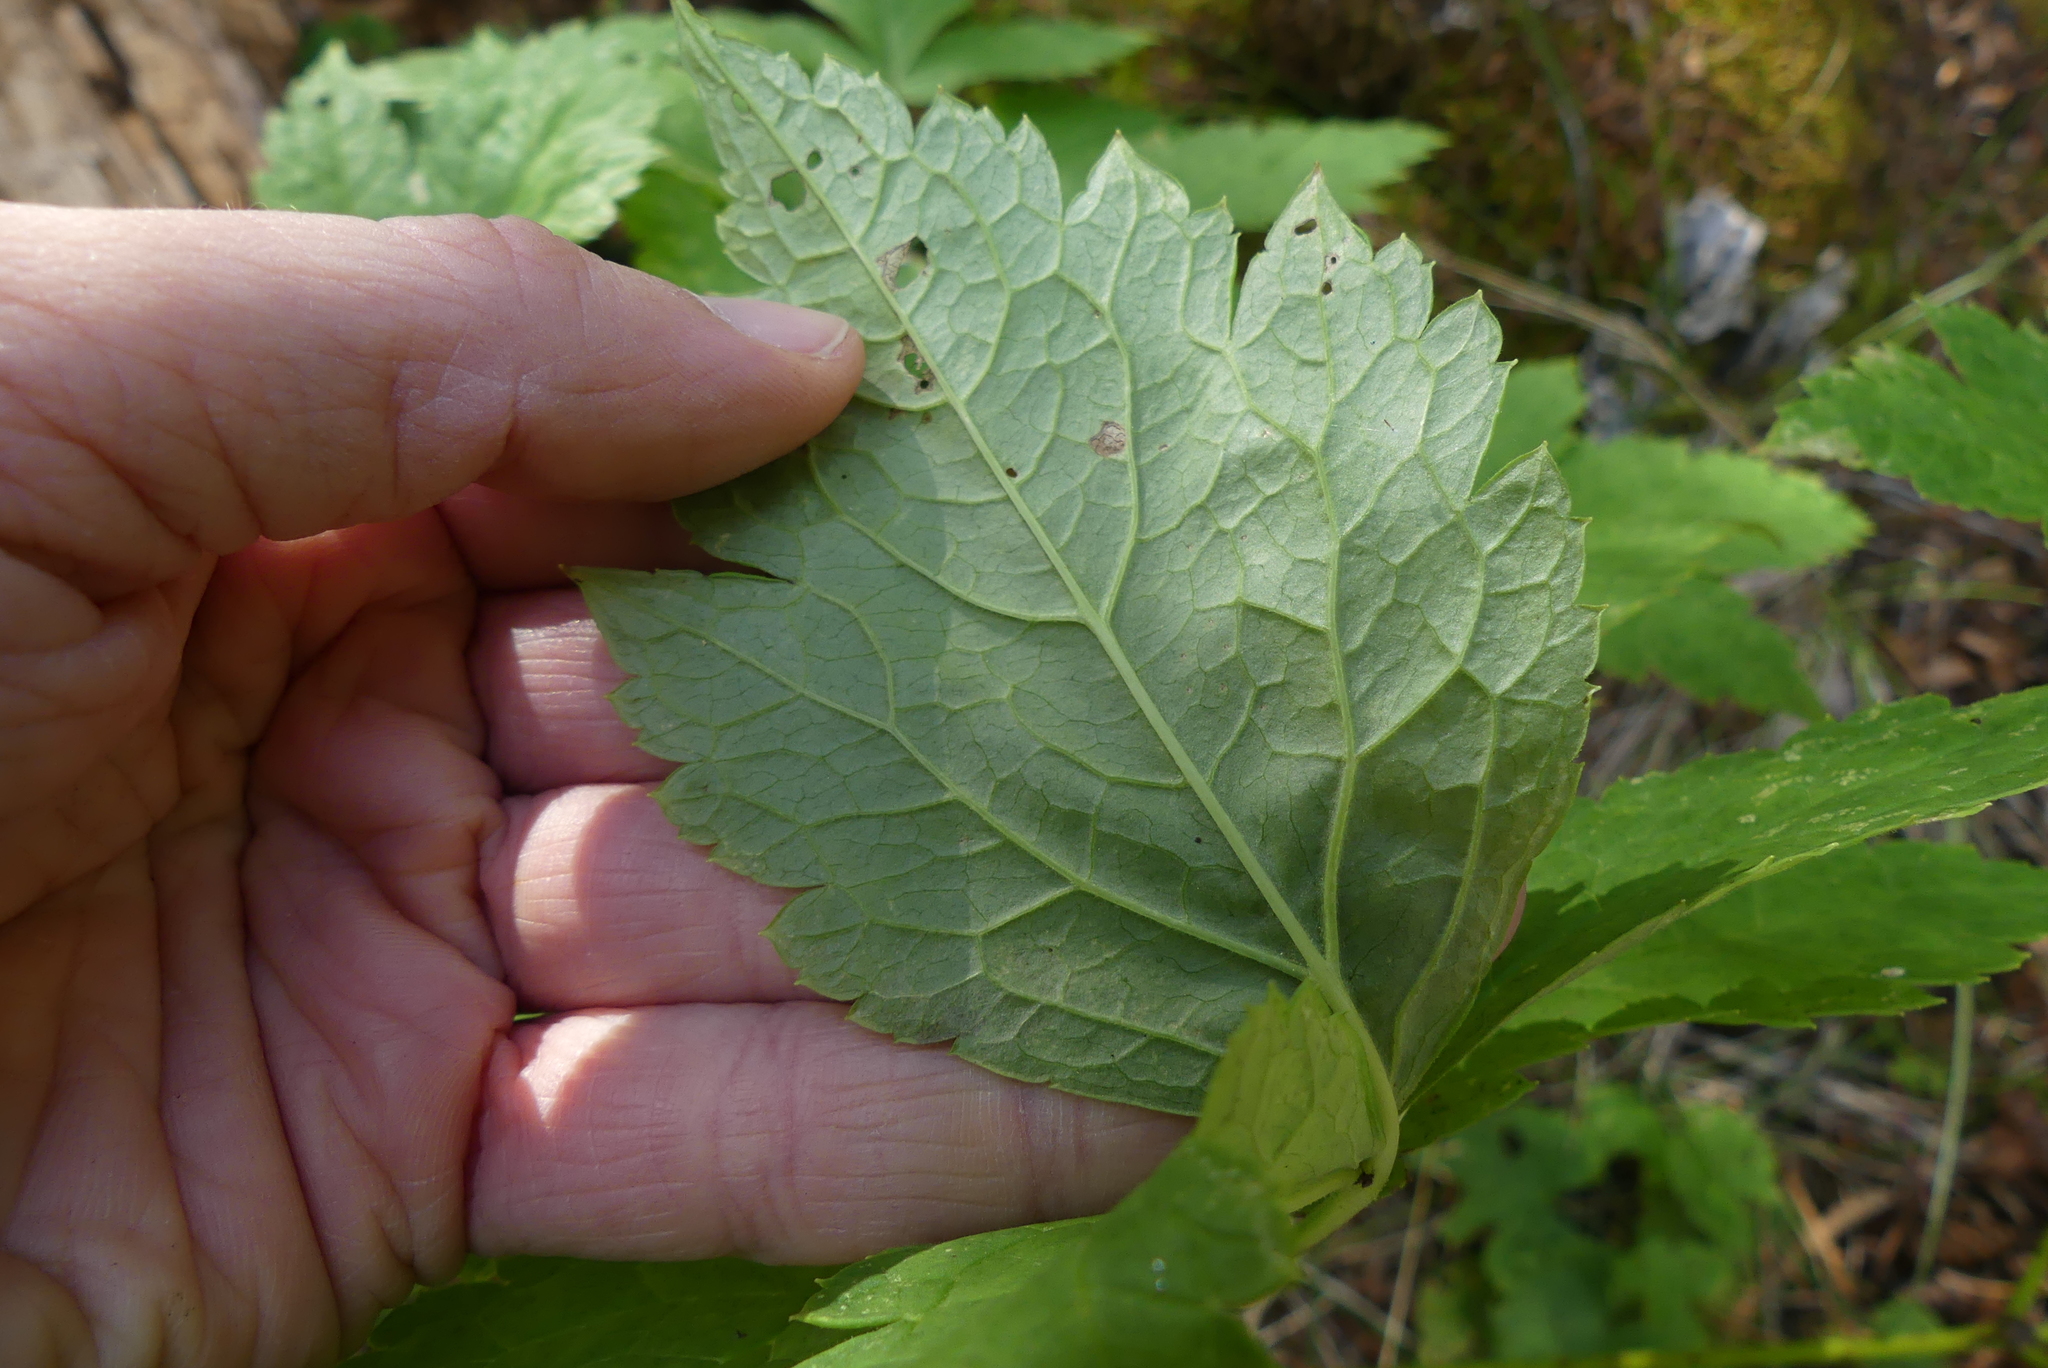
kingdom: Plantae
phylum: Tracheophyta
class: Magnoliopsida
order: Ranunculales
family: Ranunculaceae
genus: Actaea
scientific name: Actaea rubra
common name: Red baneberry
